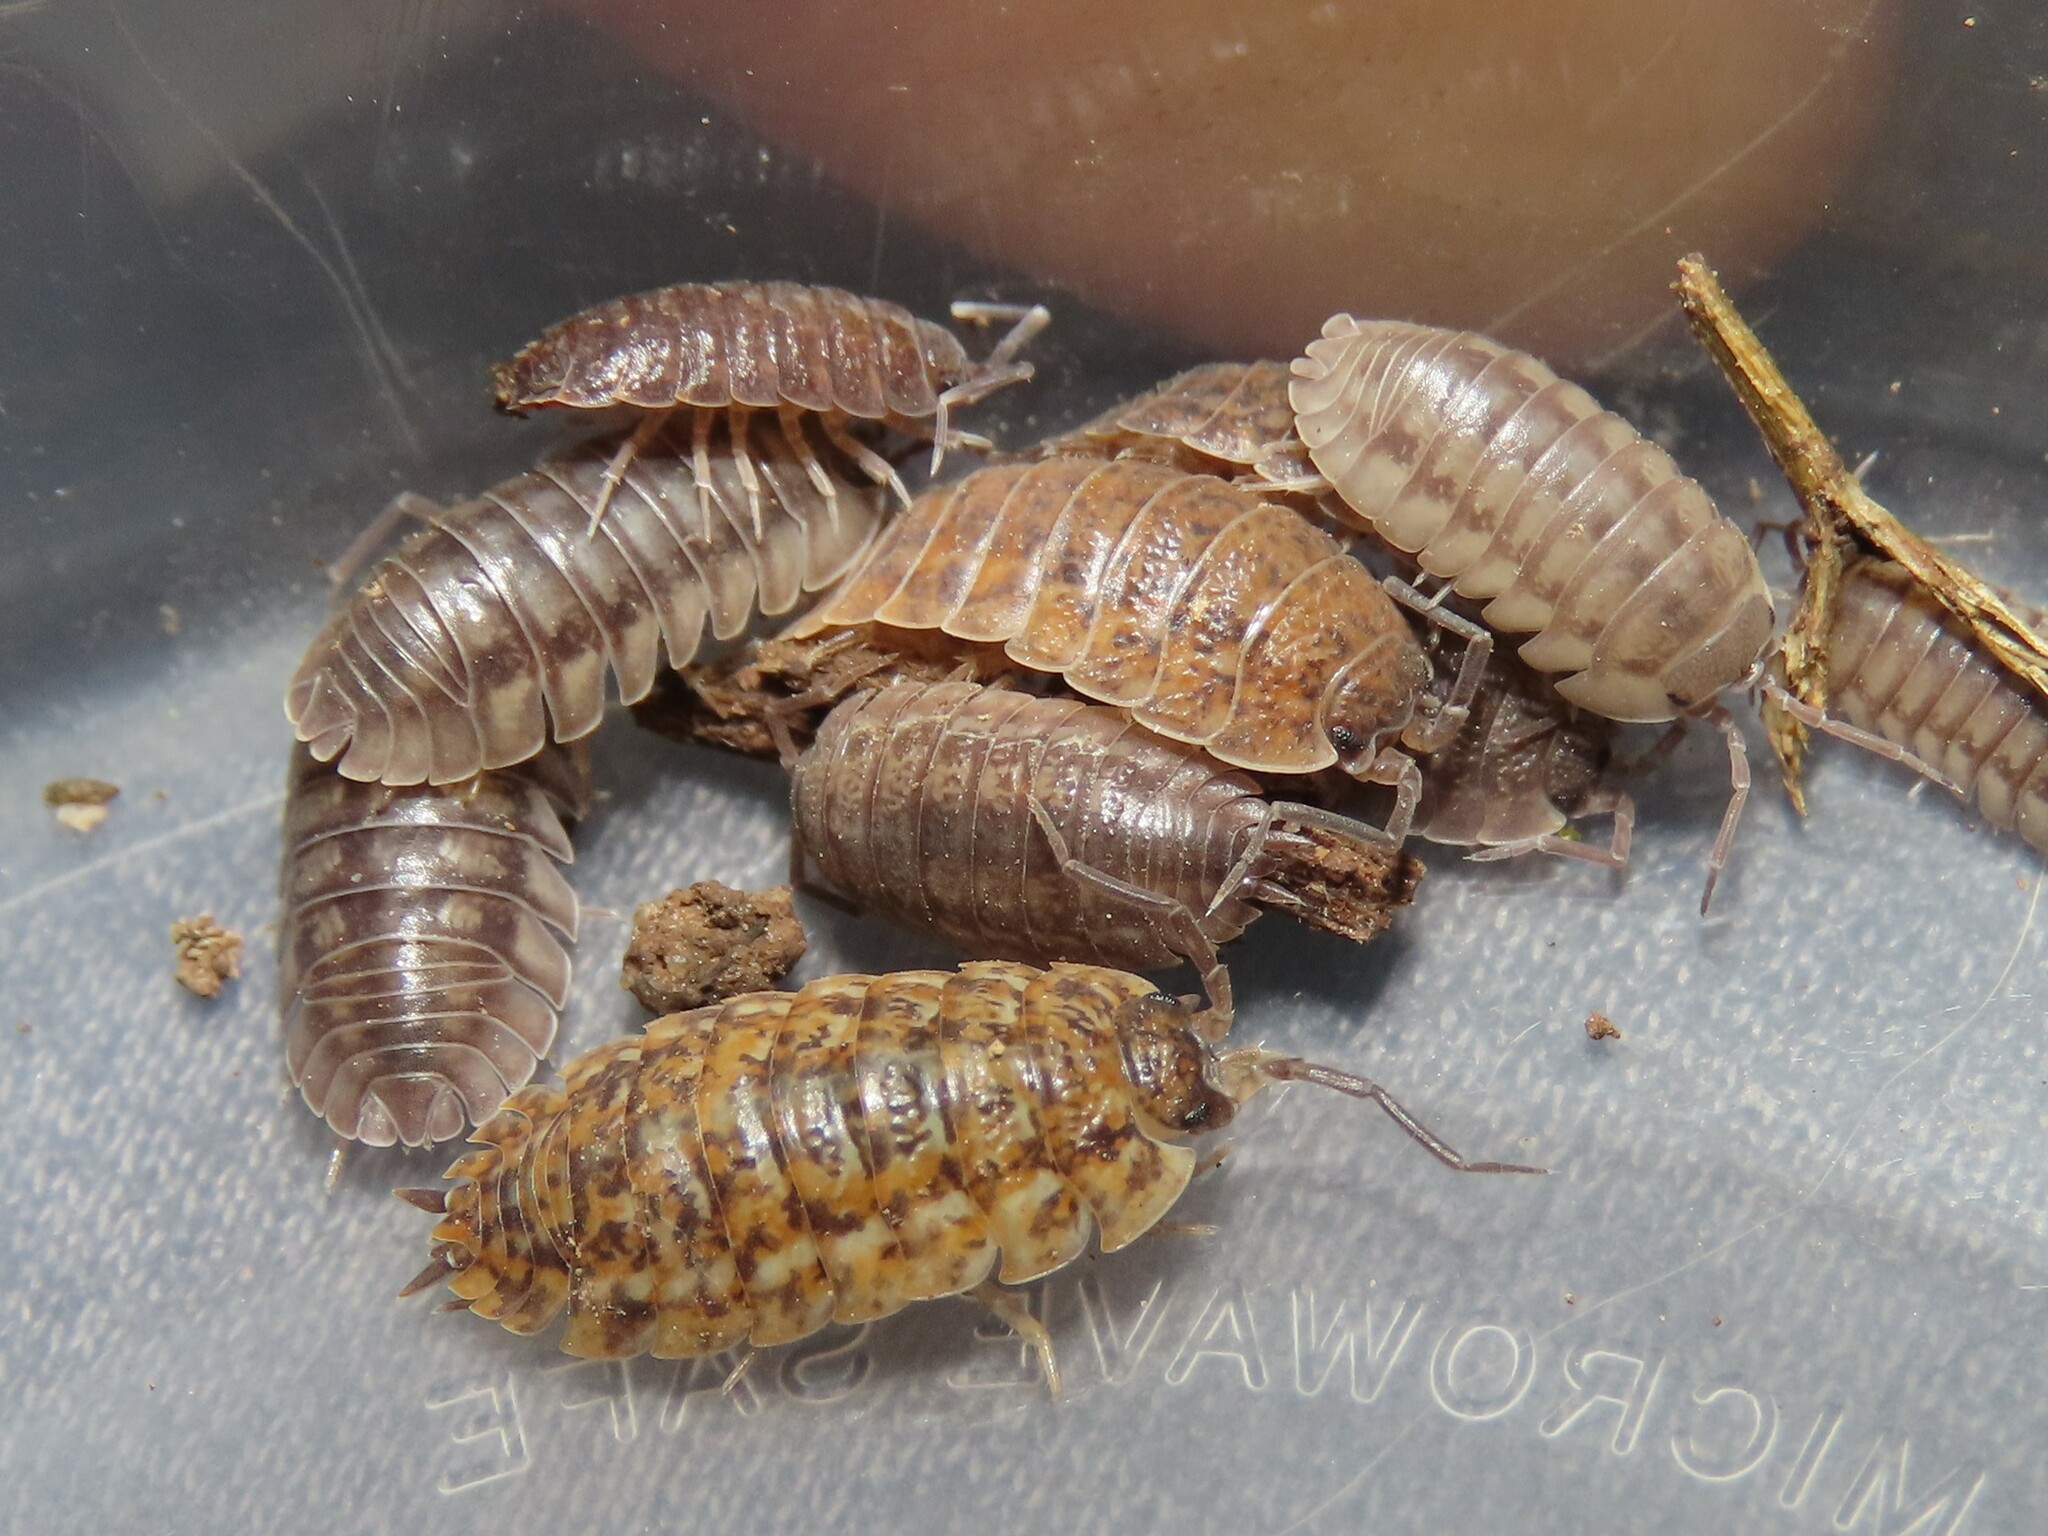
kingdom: Animalia
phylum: Arthropoda
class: Malacostraca
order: Isopoda
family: Armadillidiidae
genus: Armadillidium
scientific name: Armadillidium nasatum
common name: Isopod
